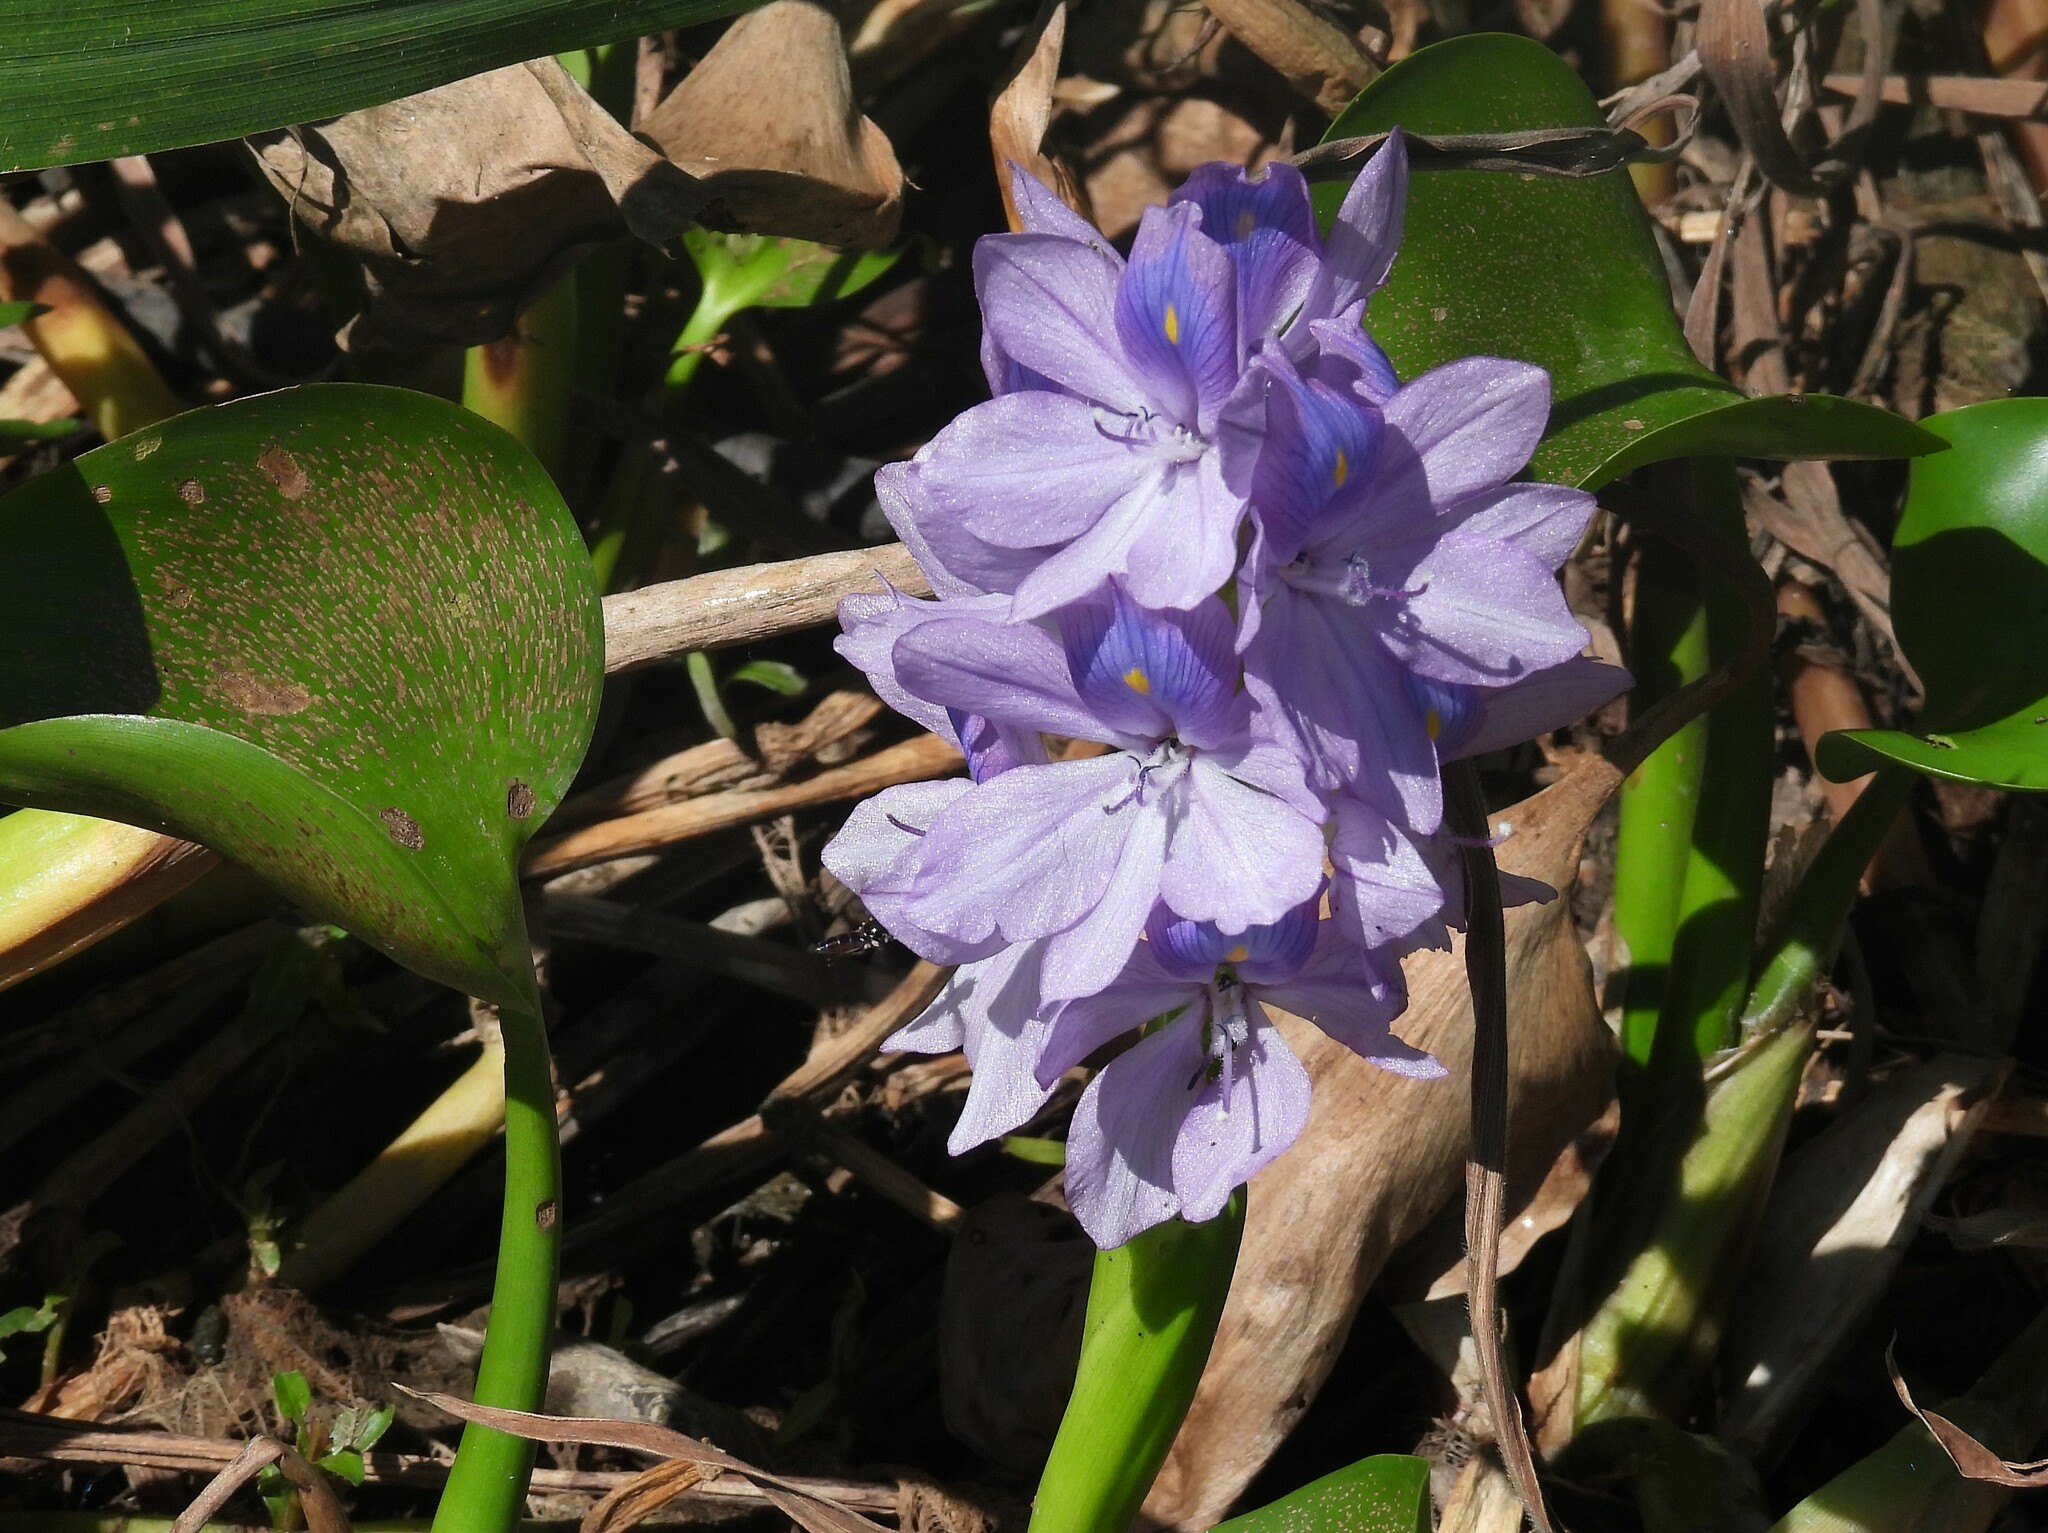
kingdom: Plantae
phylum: Tracheophyta
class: Liliopsida
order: Commelinales
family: Pontederiaceae
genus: Pontederia
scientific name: Pontederia crassipes
